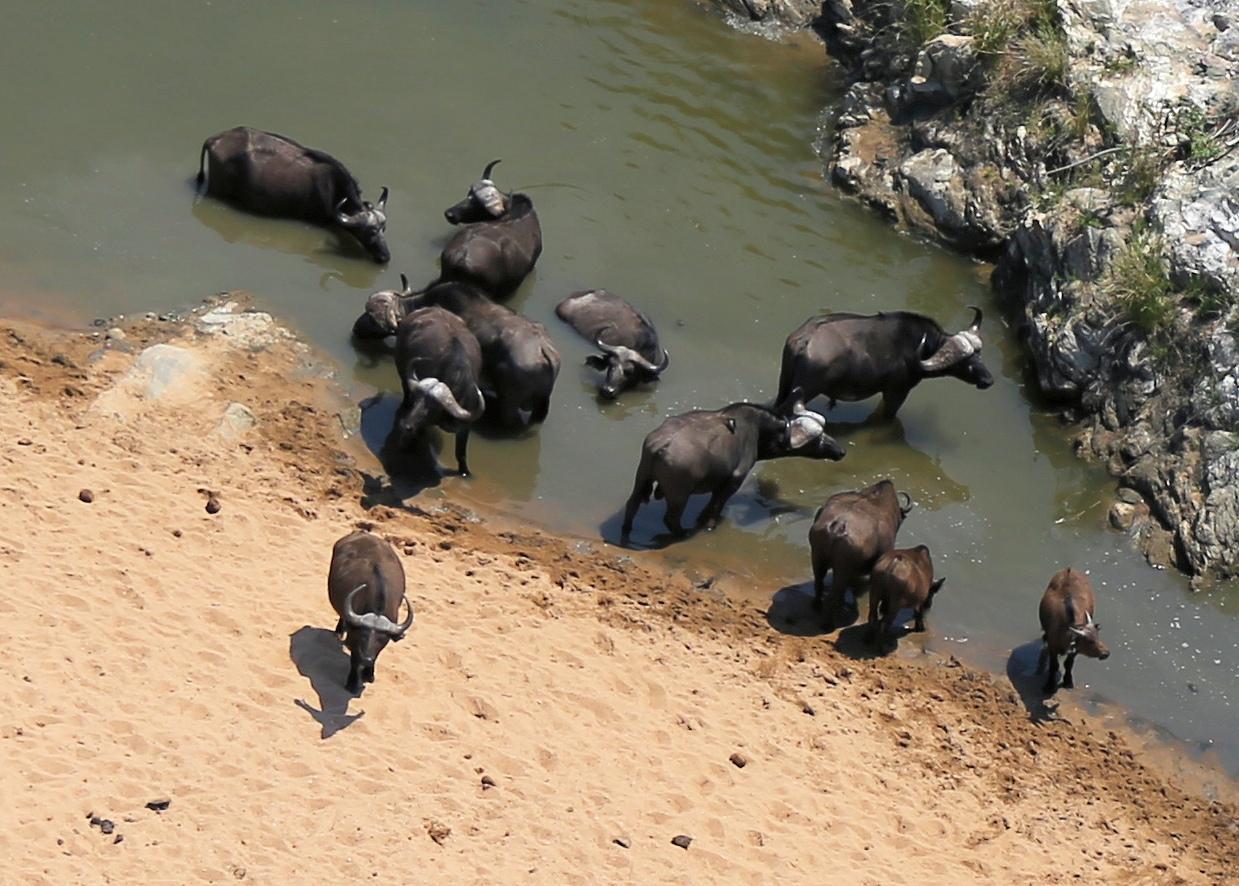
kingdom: Animalia
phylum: Chordata
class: Mammalia
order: Artiodactyla
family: Bovidae
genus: Syncerus
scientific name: Syncerus caffer
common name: African buffalo
